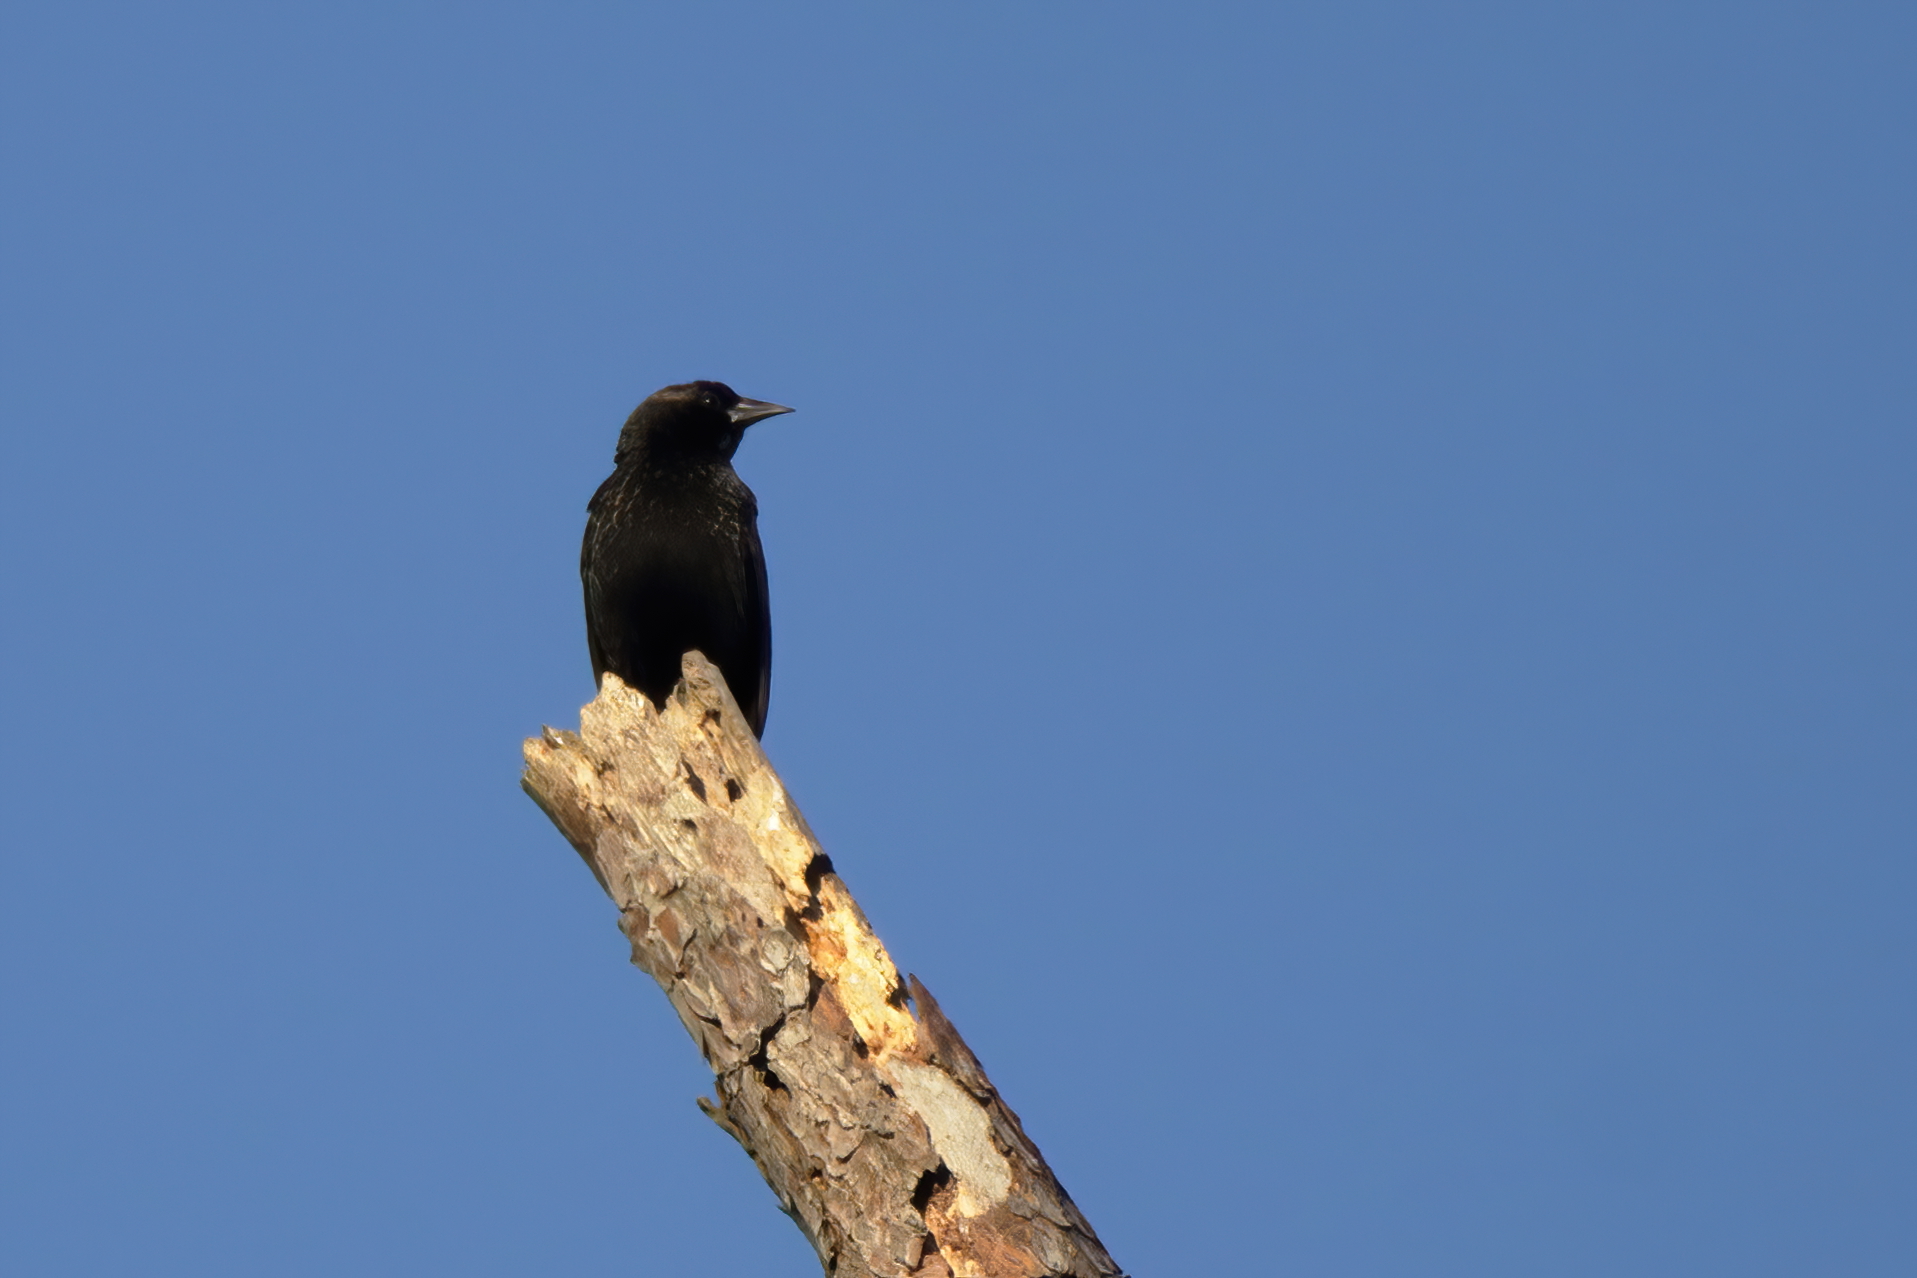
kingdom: Animalia
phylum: Chordata
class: Aves
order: Passeriformes
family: Icteridae
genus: Agelaius
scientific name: Agelaius phoeniceus
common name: Red-winged blackbird
